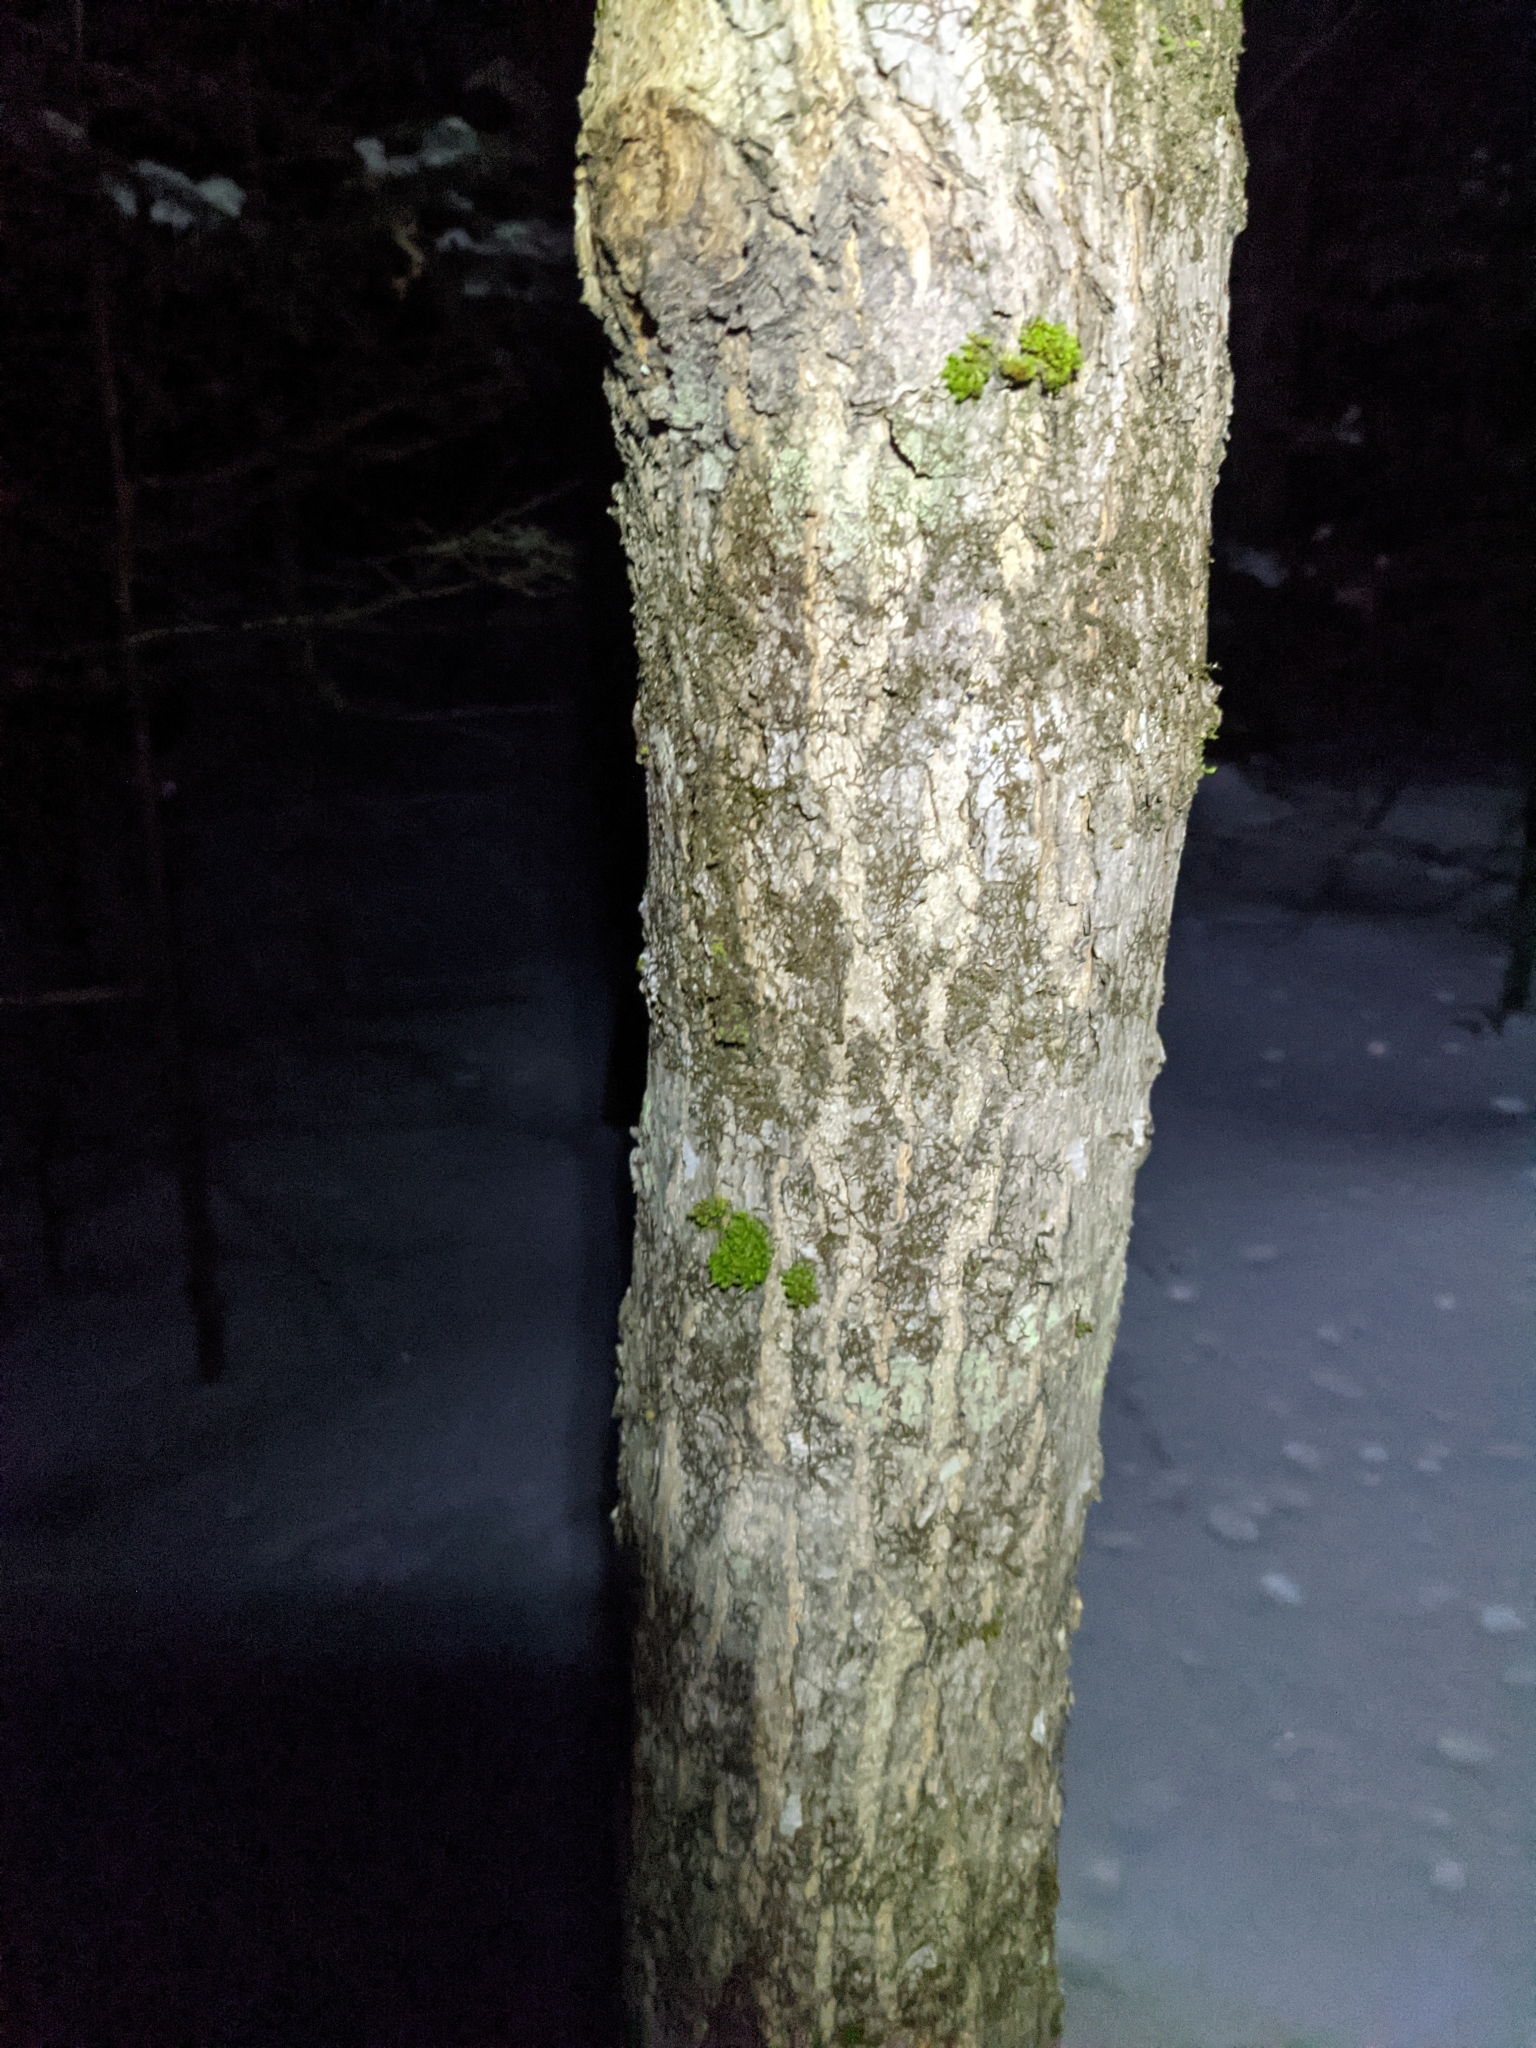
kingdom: Plantae
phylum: Bryophyta
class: Bryopsida
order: Orthotrichales
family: Orthotrichaceae
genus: Ulota
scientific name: Ulota crispa
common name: Crisped pincushion moss
